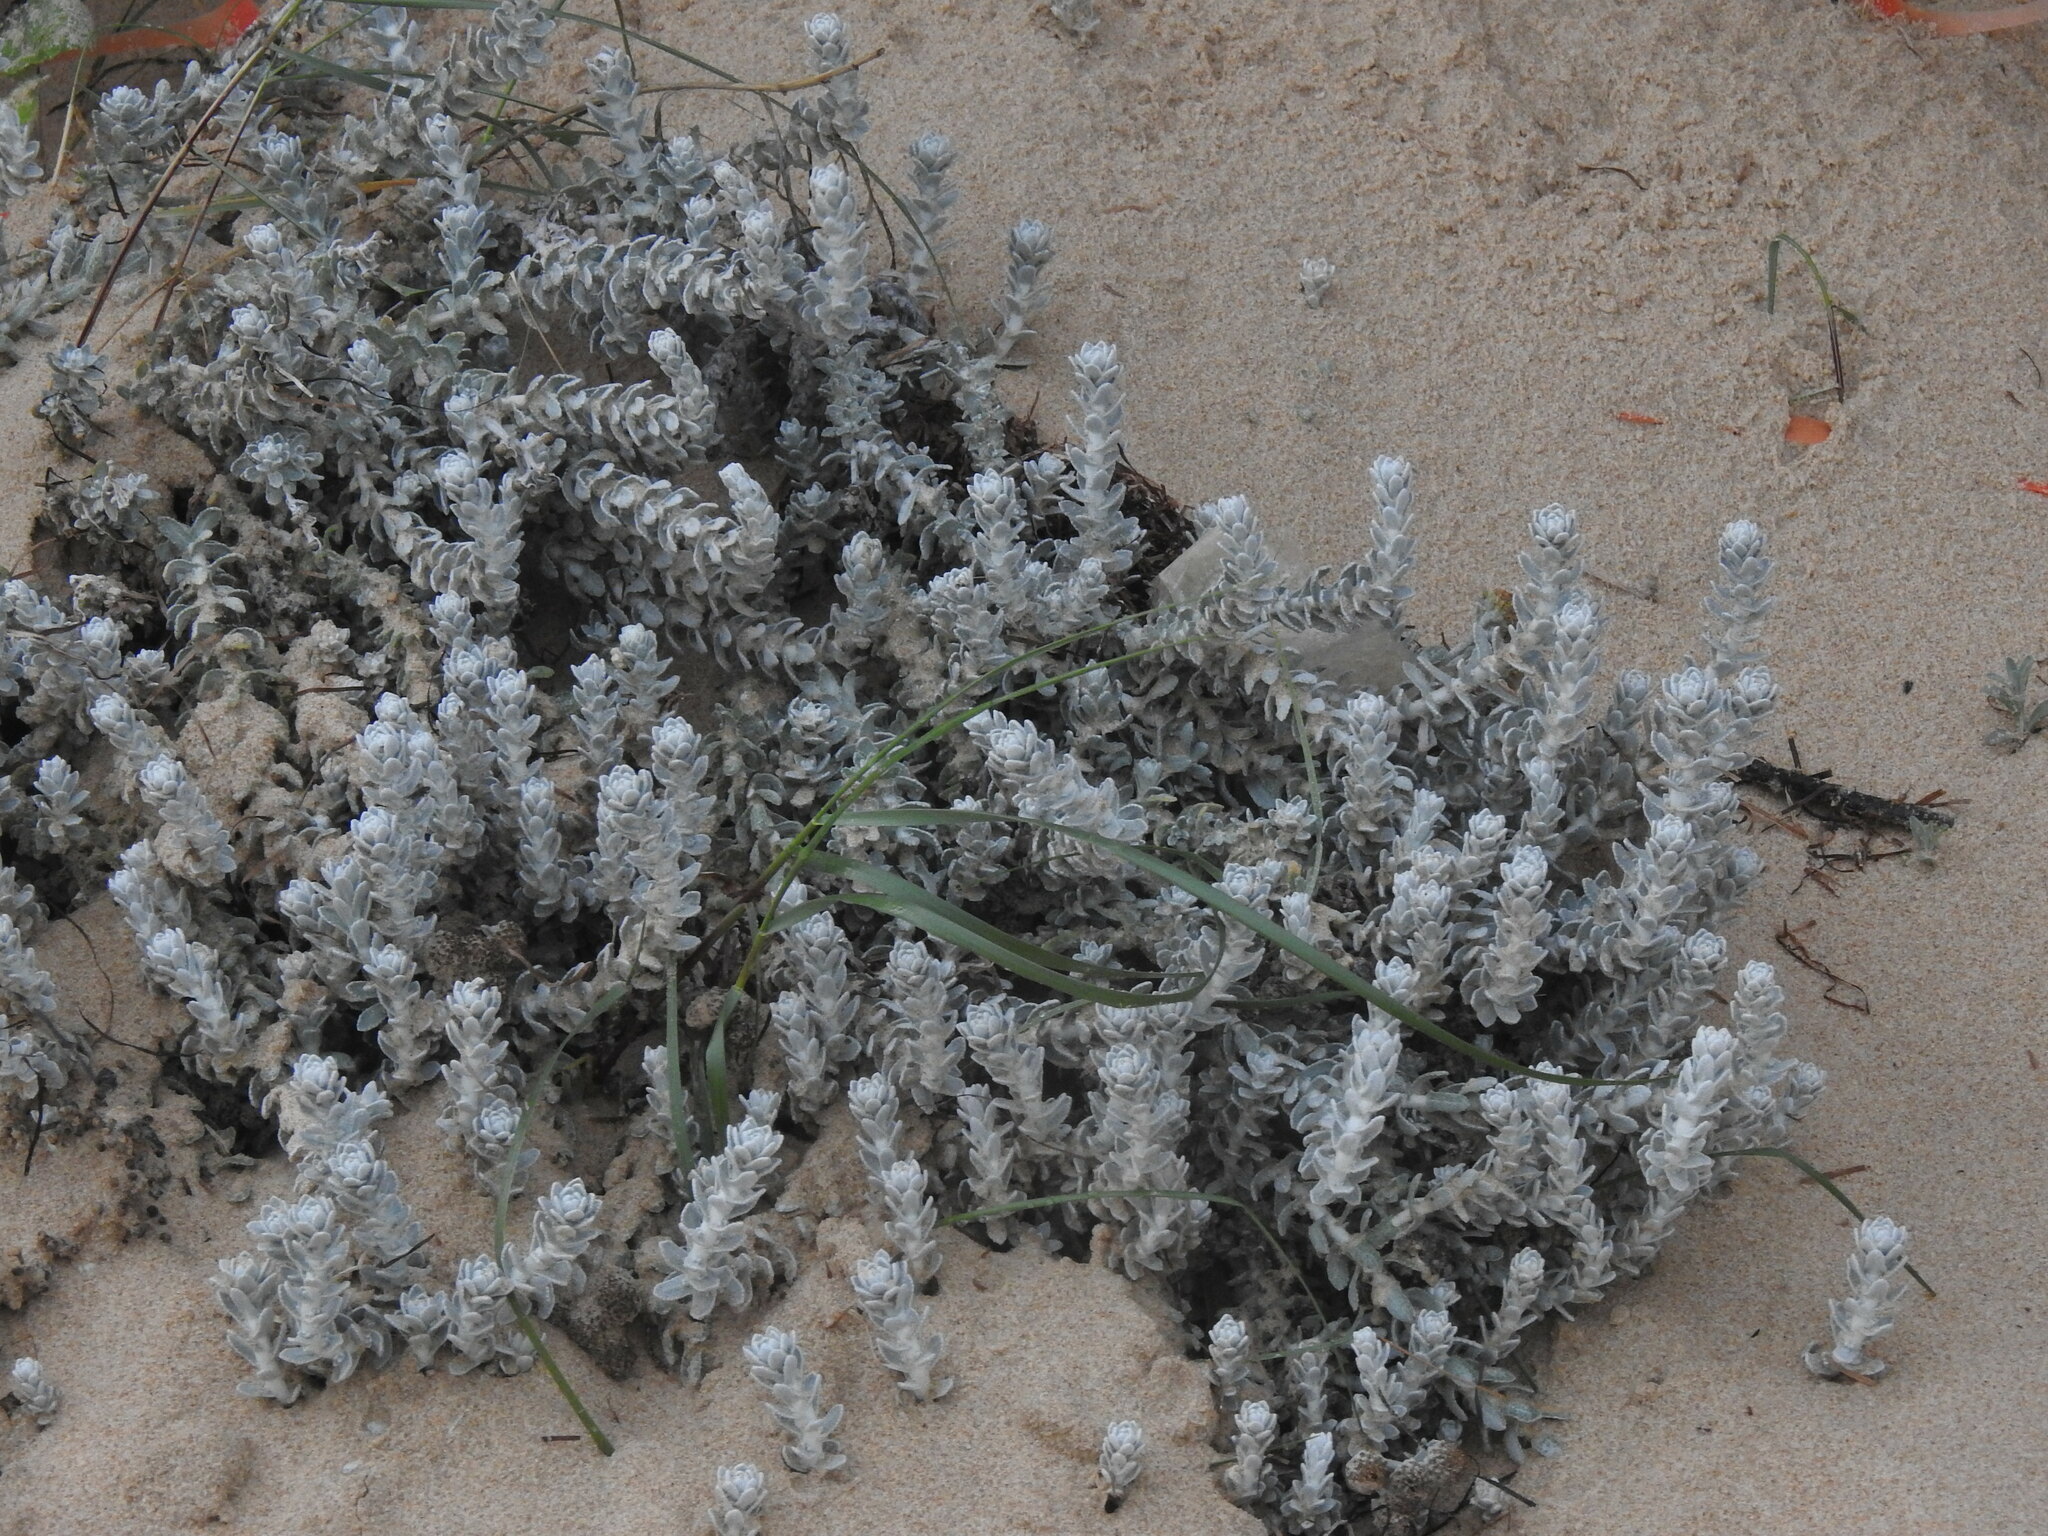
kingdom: Plantae
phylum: Tracheophyta
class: Magnoliopsida
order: Asterales
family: Asteraceae
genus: Achillea
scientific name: Achillea maritima
